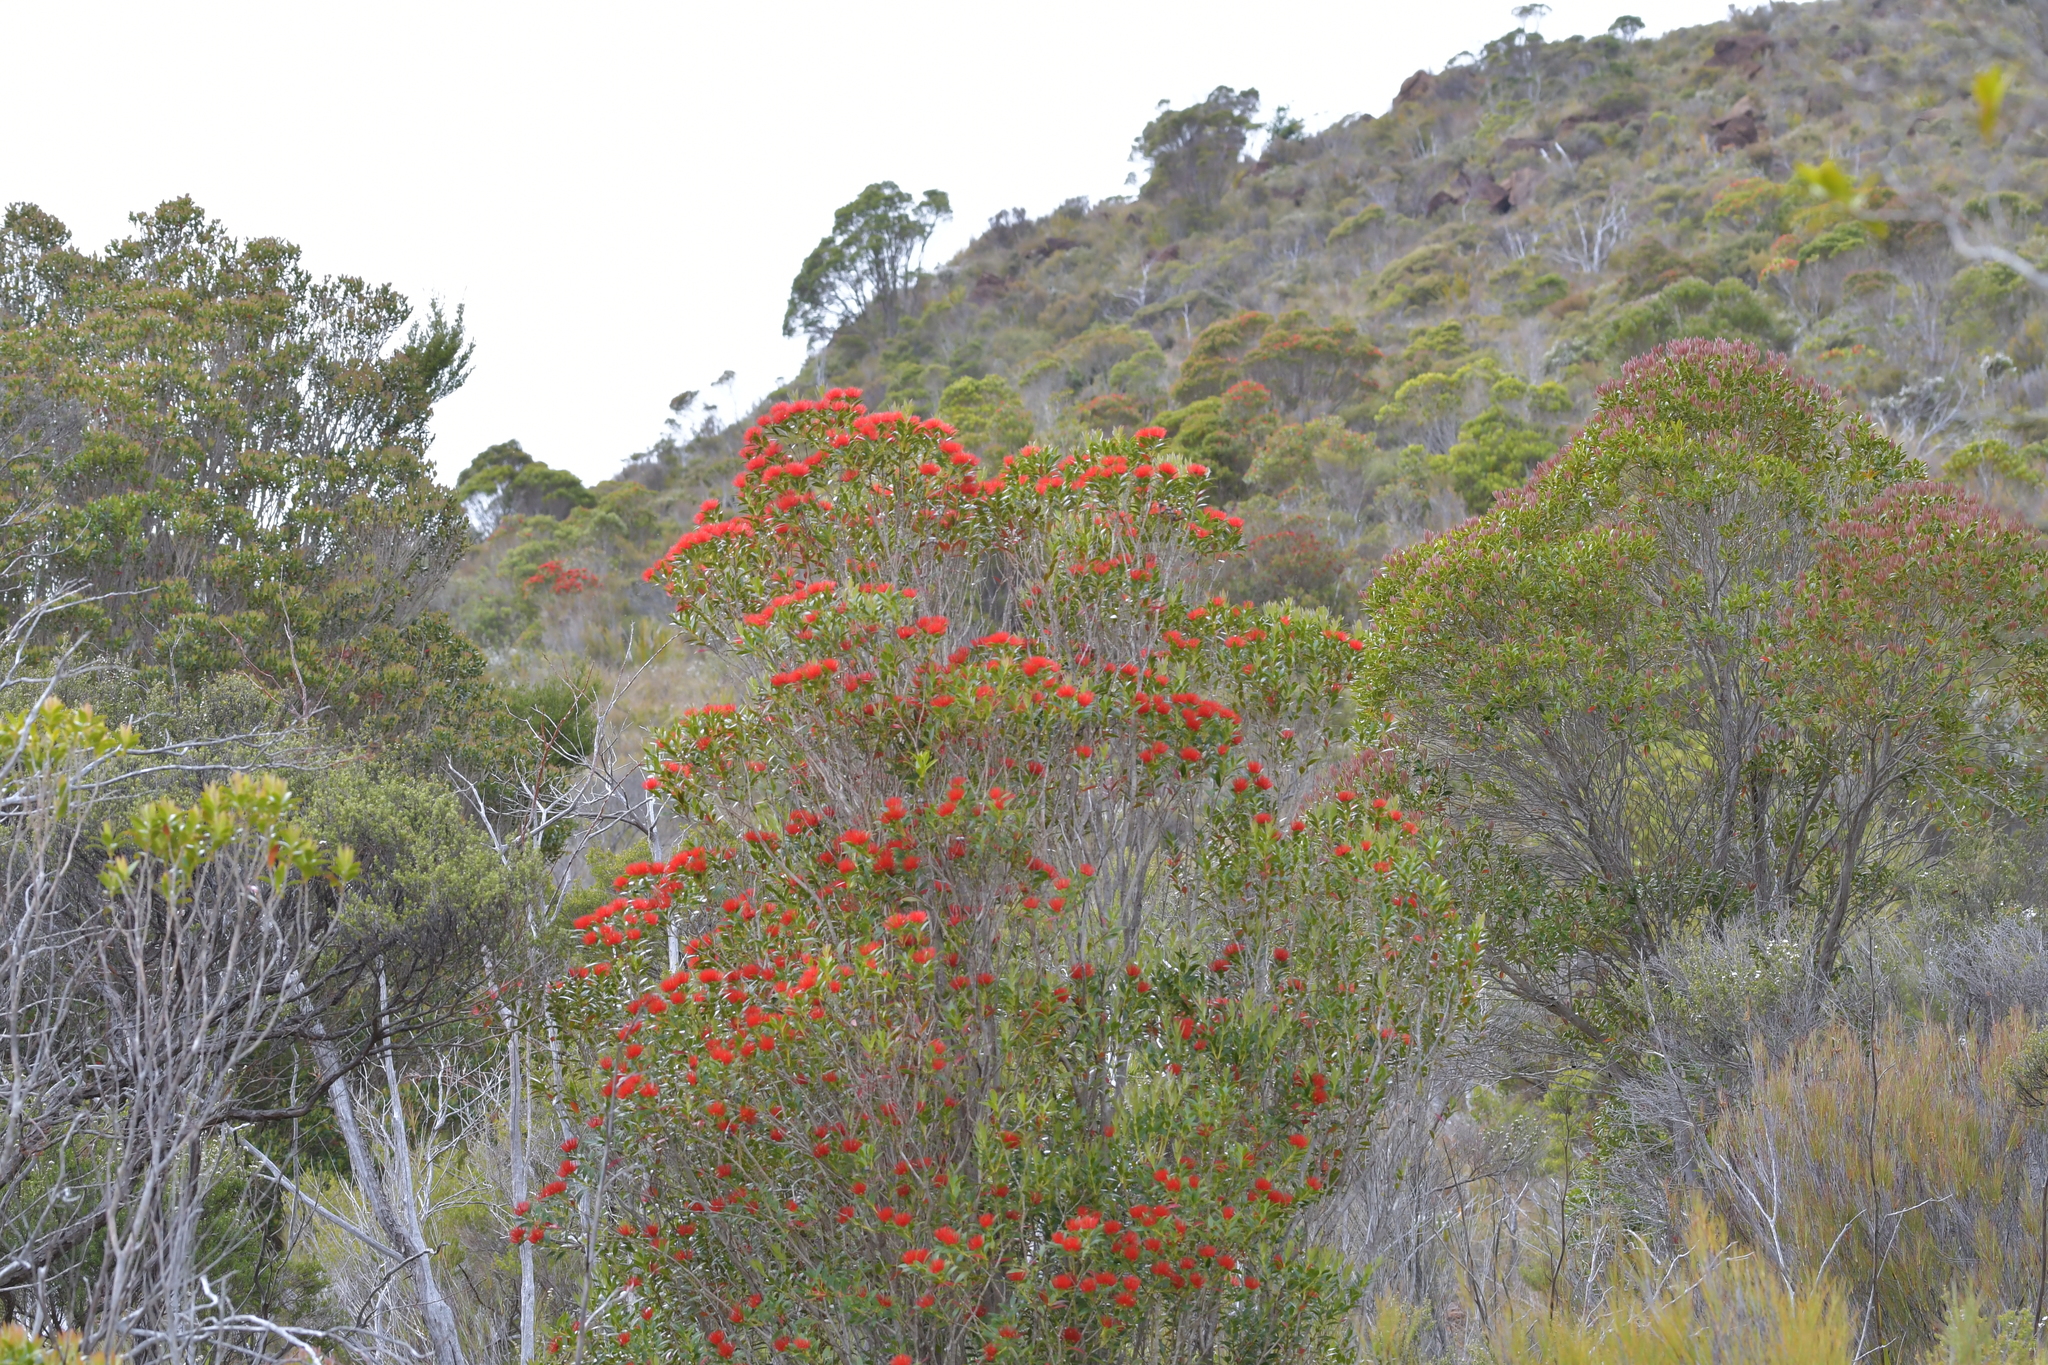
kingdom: Plantae
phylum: Tracheophyta
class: Magnoliopsida
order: Myrtales
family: Myrtaceae
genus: Metrosideros
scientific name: Metrosideros umbellata
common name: Southern rata
